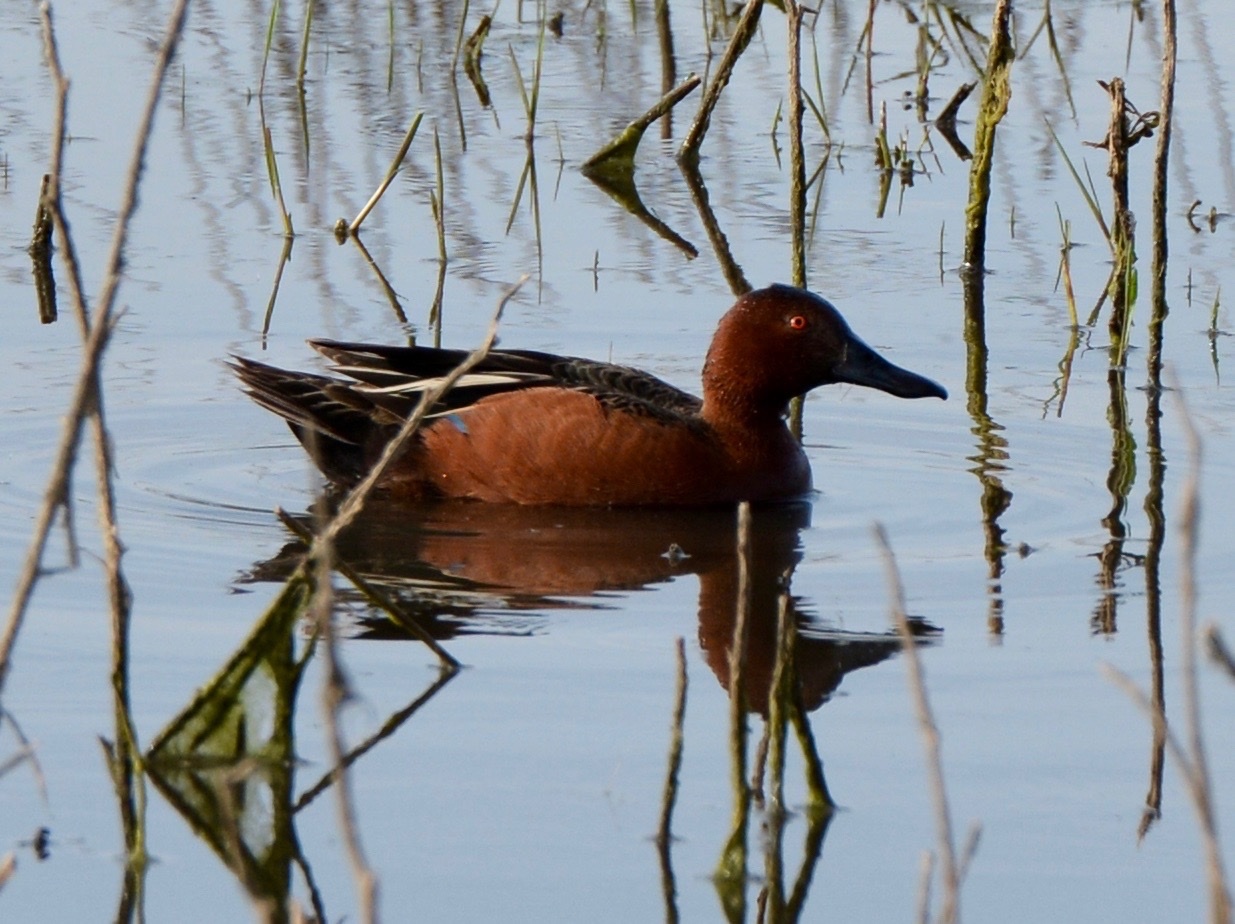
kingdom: Animalia
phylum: Chordata
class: Aves
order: Anseriformes
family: Anatidae
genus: Spatula
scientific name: Spatula cyanoptera
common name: Cinnamon teal
